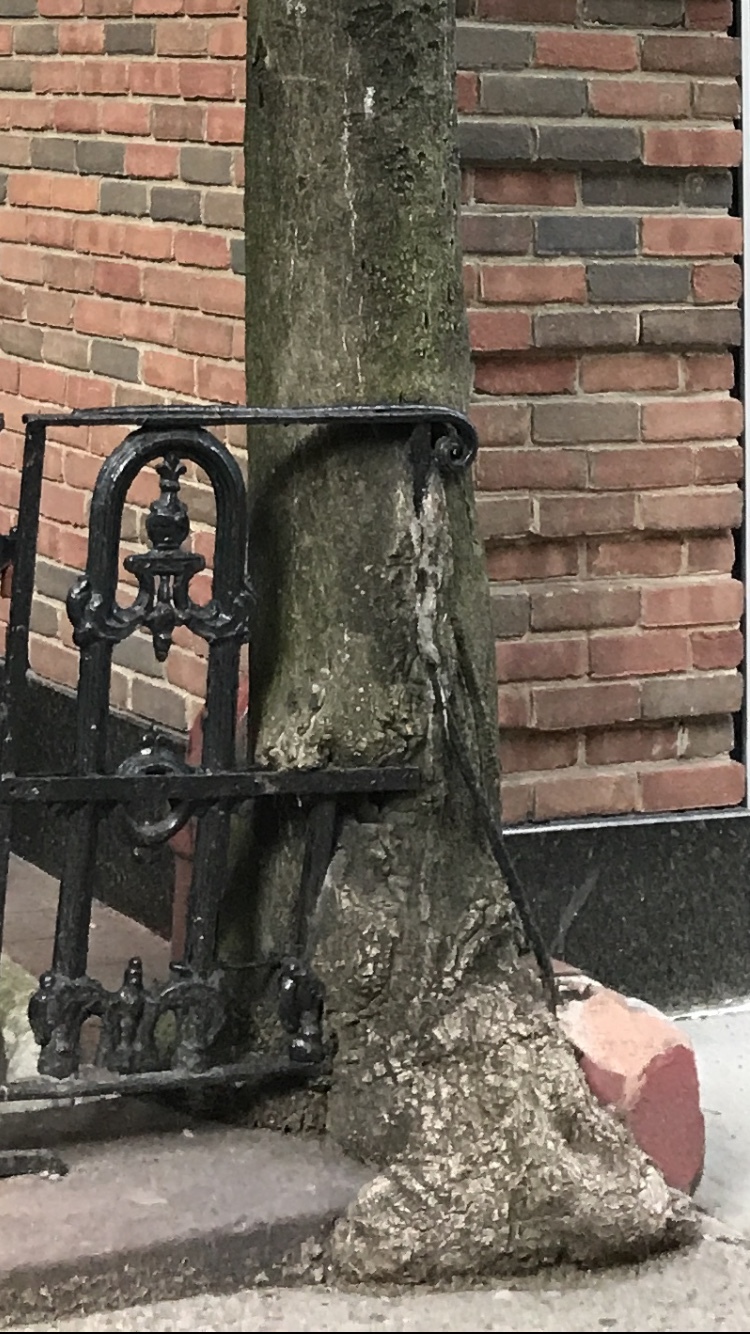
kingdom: Plantae
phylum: Tracheophyta
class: Magnoliopsida
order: Sapindales
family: Simaroubaceae
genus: Ailanthus
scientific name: Ailanthus altissima
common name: Tree-of-heaven
